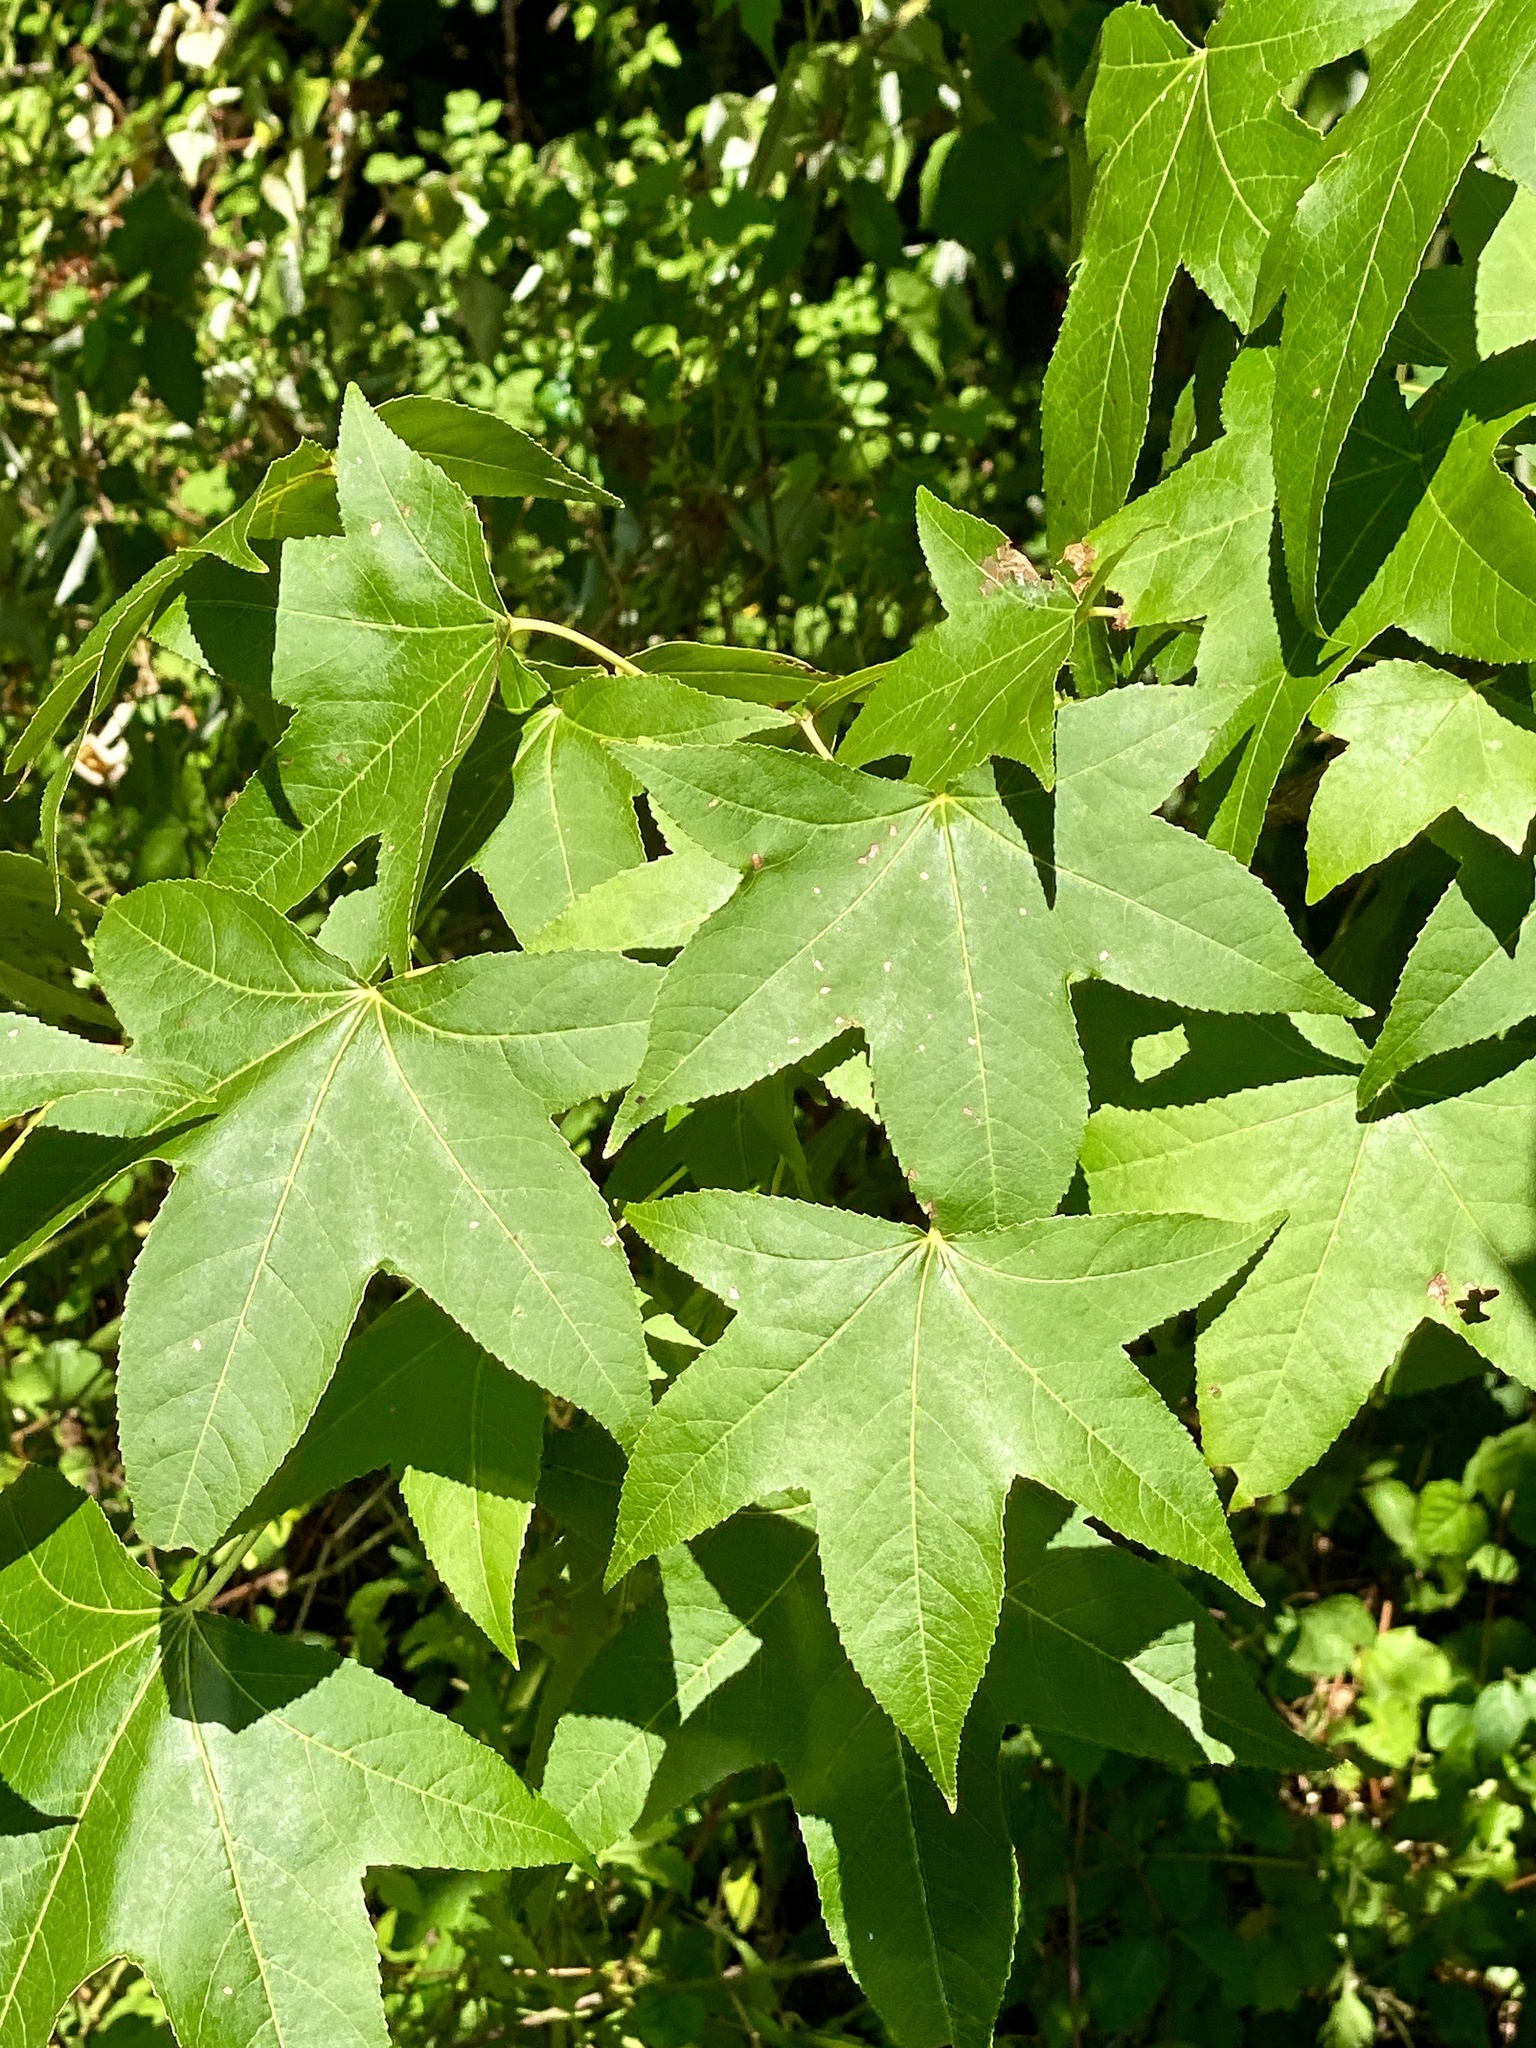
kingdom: Plantae
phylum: Tracheophyta
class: Magnoliopsida
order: Saxifragales
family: Altingiaceae
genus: Liquidambar
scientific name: Liquidambar styraciflua
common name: Sweet gum
